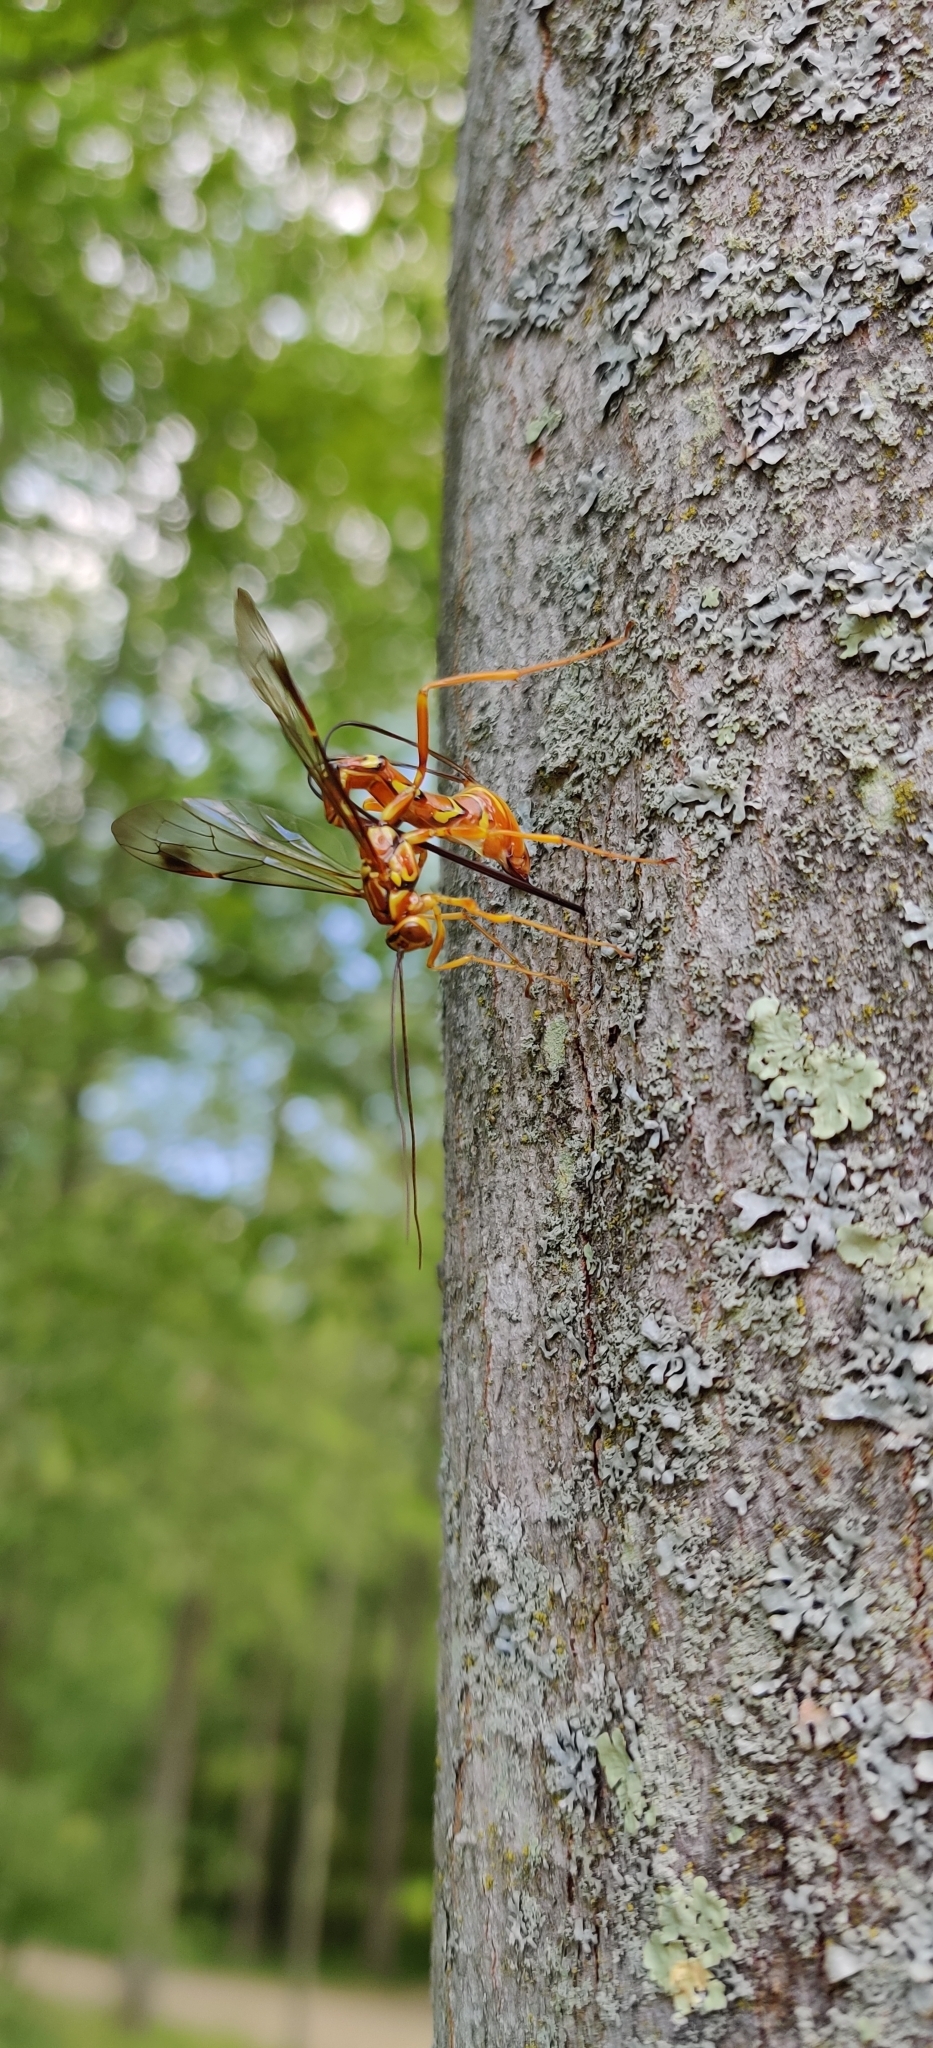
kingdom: Animalia
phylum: Arthropoda
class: Insecta
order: Hymenoptera
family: Ichneumonidae
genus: Megarhyssa
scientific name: Megarhyssa greenei
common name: Greene's giant ichneumonid wasp
